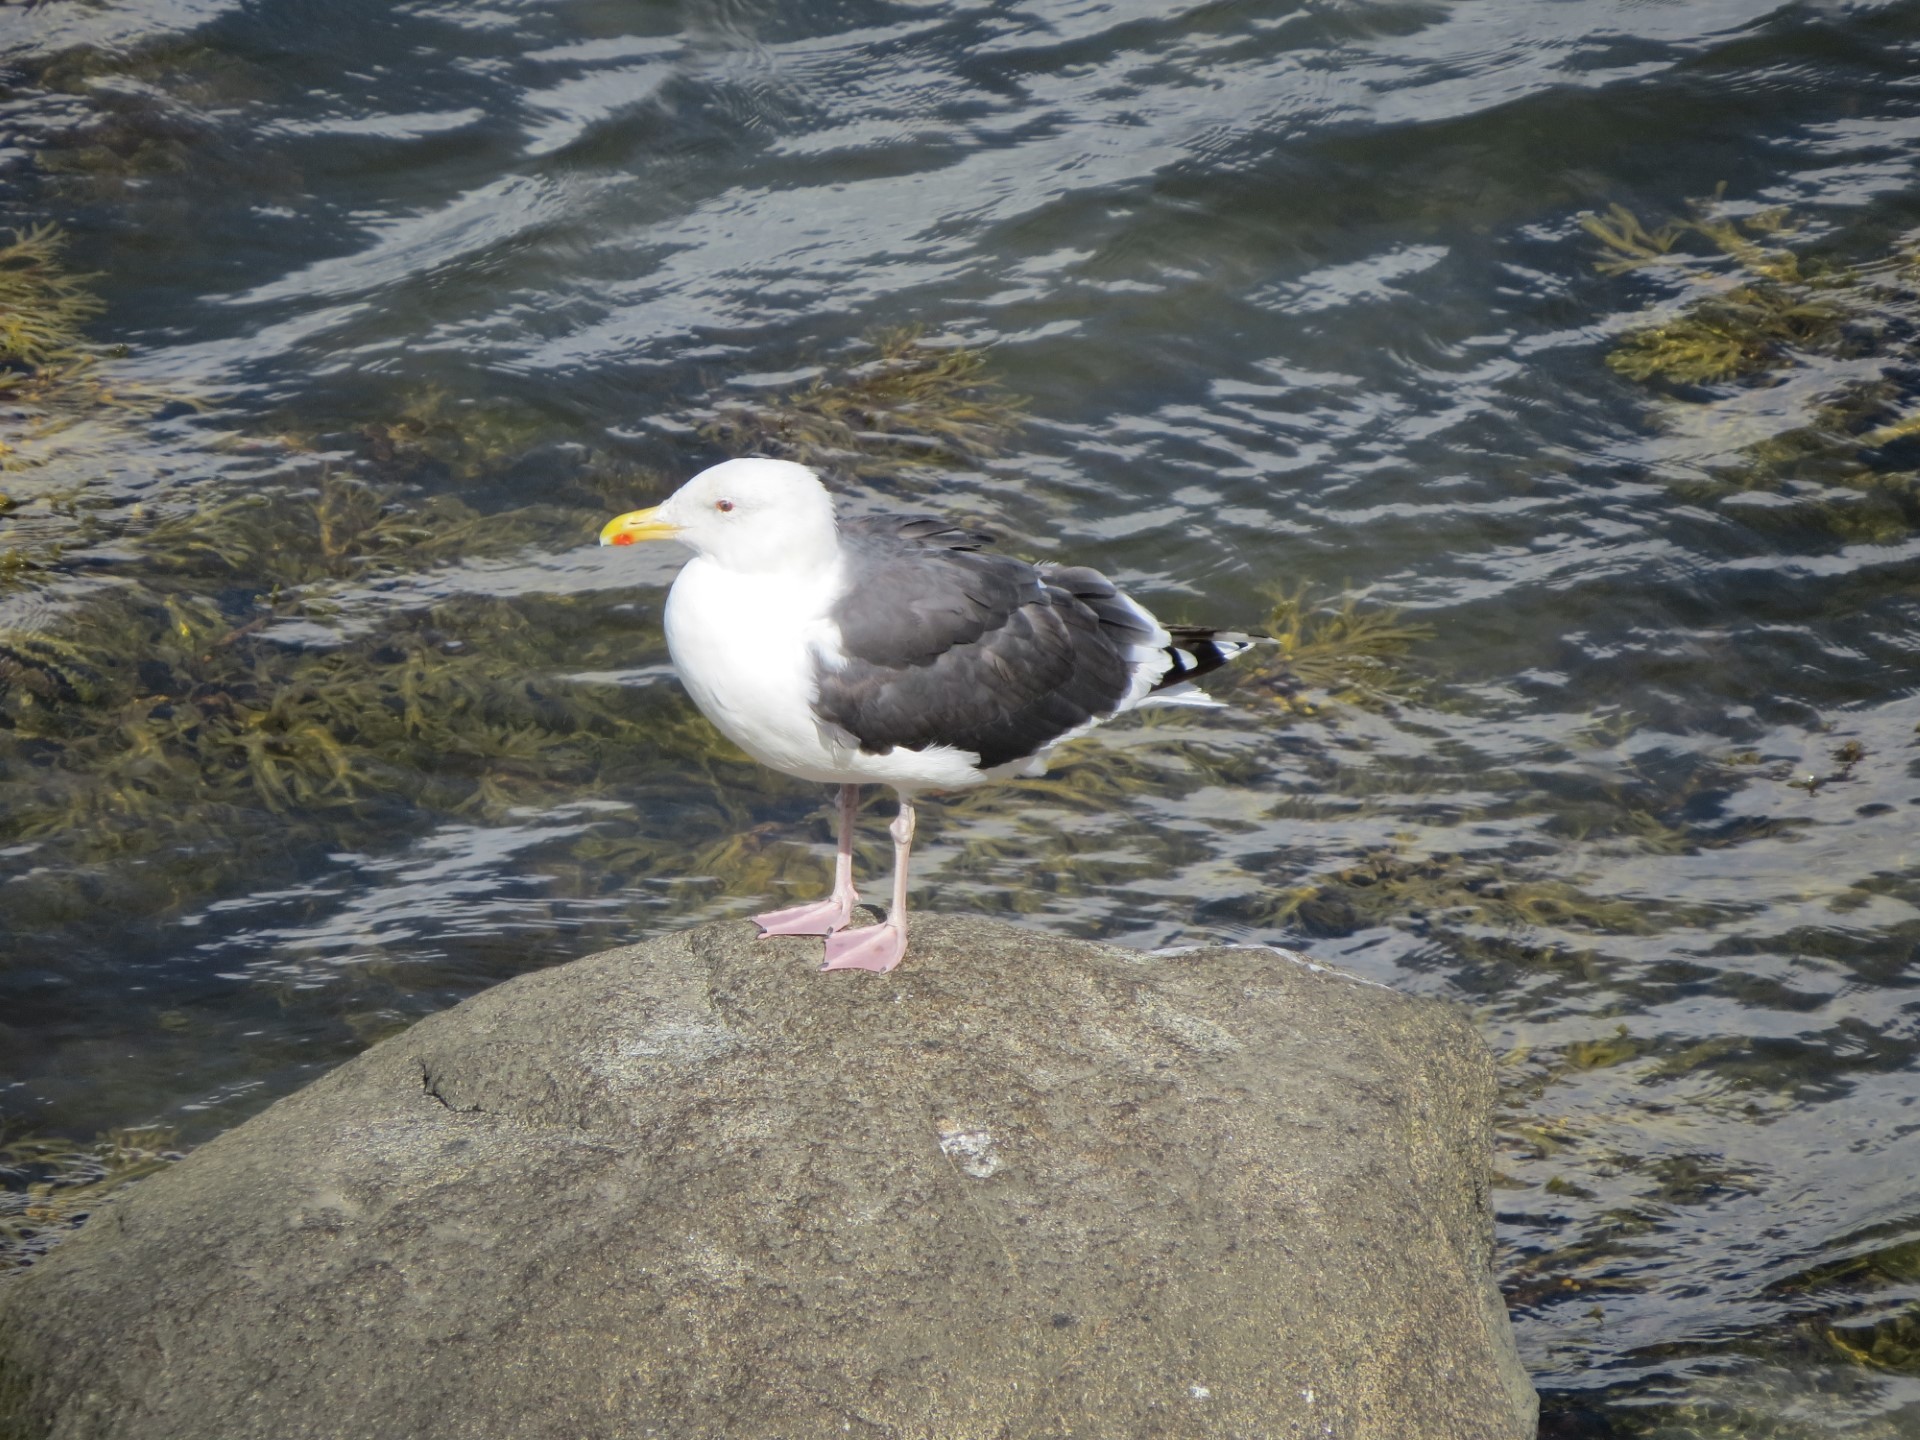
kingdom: Animalia
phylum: Chordata
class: Aves
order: Charadriiformes
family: Laridae
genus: Larus
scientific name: Larus marinus
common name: Great black-backed gull
